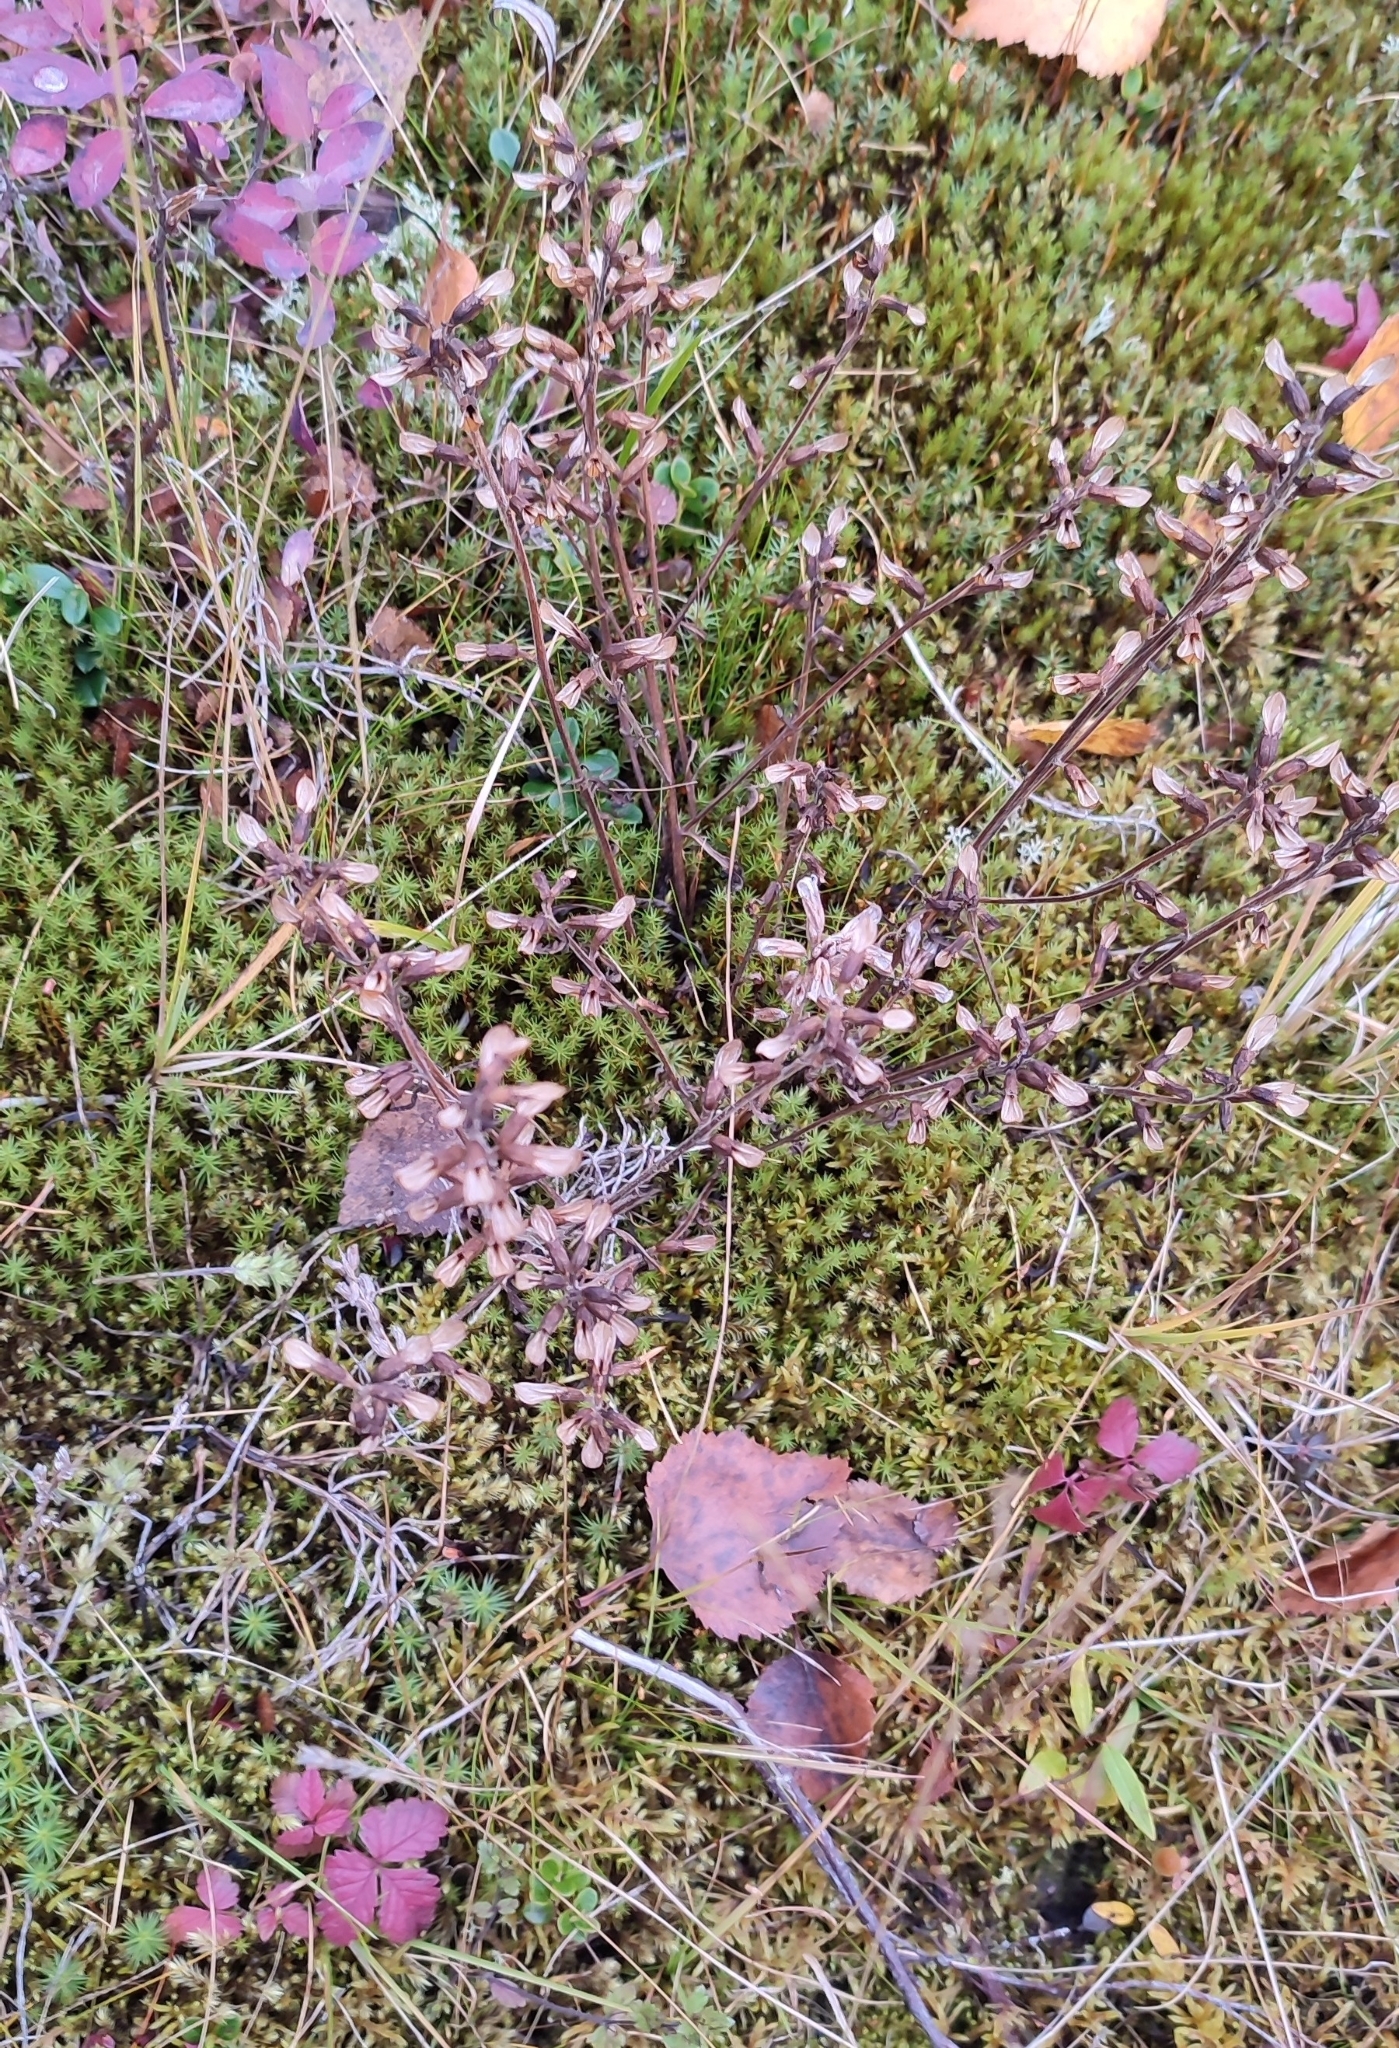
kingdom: Plantae
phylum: Tracheophyta
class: Magnoliopsida
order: Lamiales
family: Orobanchaceae
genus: Pedicularis
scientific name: Pedicularis labradorica
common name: Labrador lousewort
